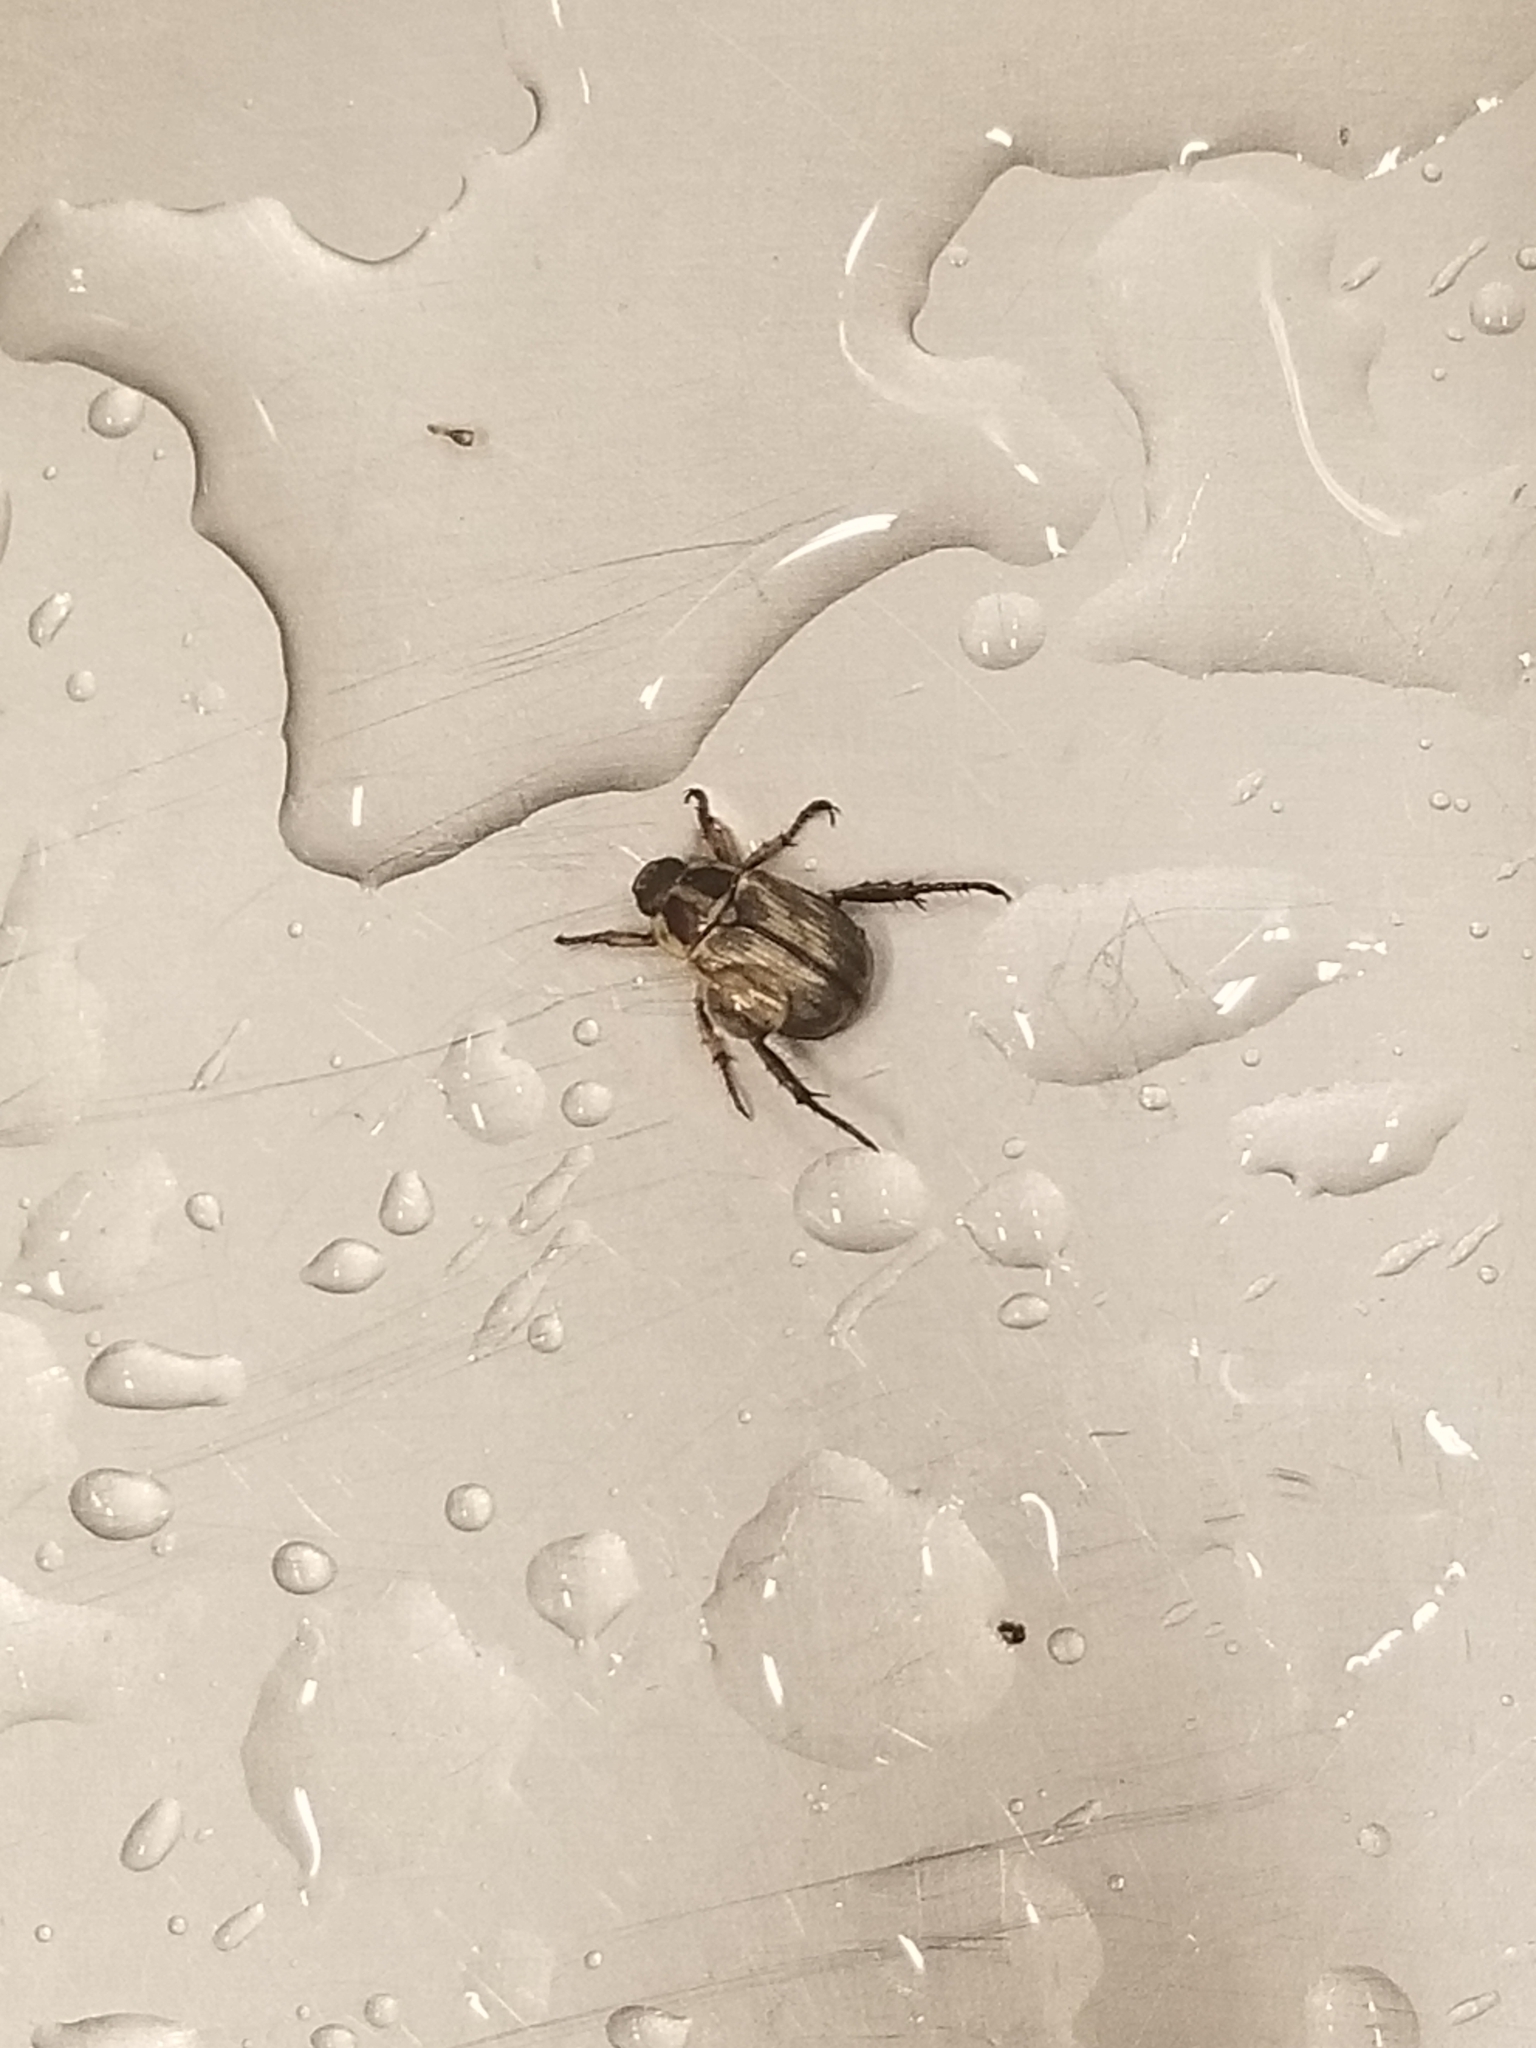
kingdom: Animalia
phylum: Arthropoda
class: Insecta
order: Coleoptera
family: Scarabaeidae
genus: Exomala
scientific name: Exomala orientalis
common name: Oriental beetle
